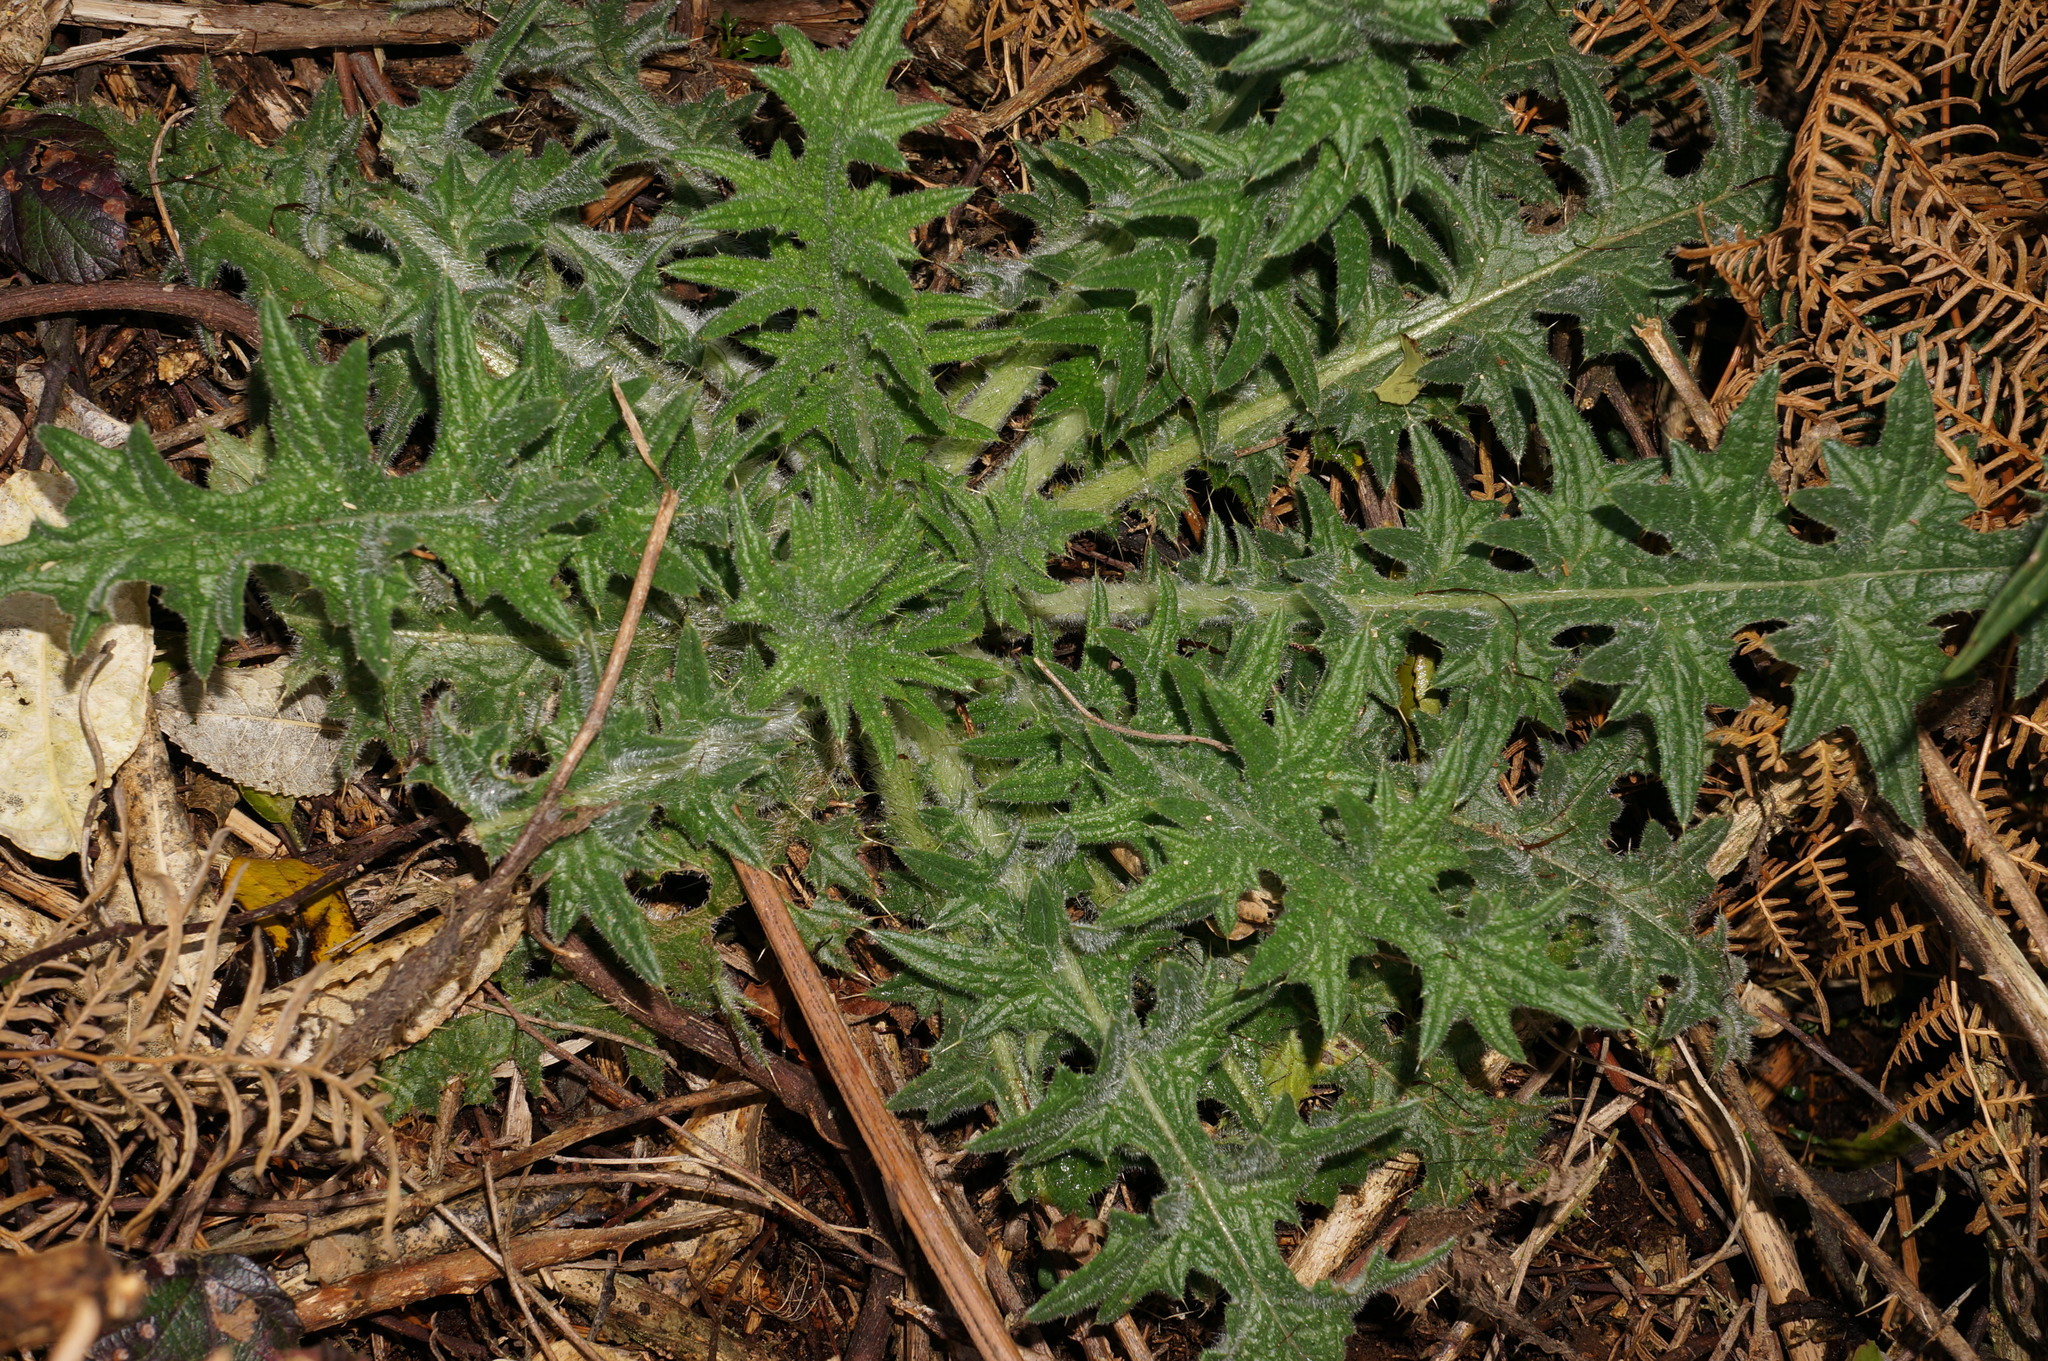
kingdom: Plantae
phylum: Tracheophyta
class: Magnoliopsida
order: Asterales
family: Asteraceae
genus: Cirsium
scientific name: Cirsium vulgare
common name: Bull thistle
